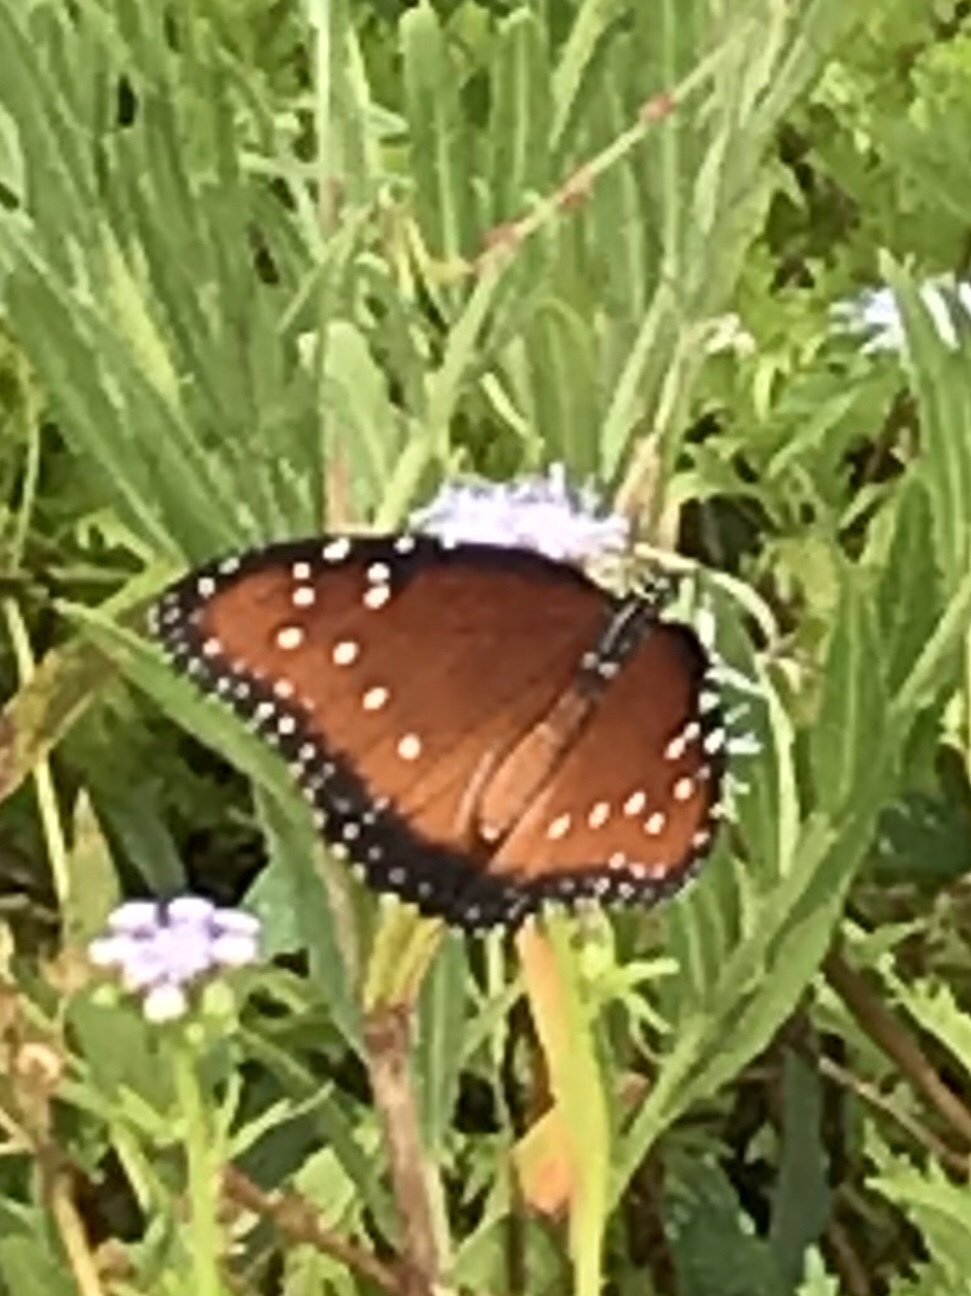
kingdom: Animalia
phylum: Arthropoda
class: Insecta
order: Lepidoptera
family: Nymphalidae
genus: Danaus
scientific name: Danaus gilippus
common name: Queen
